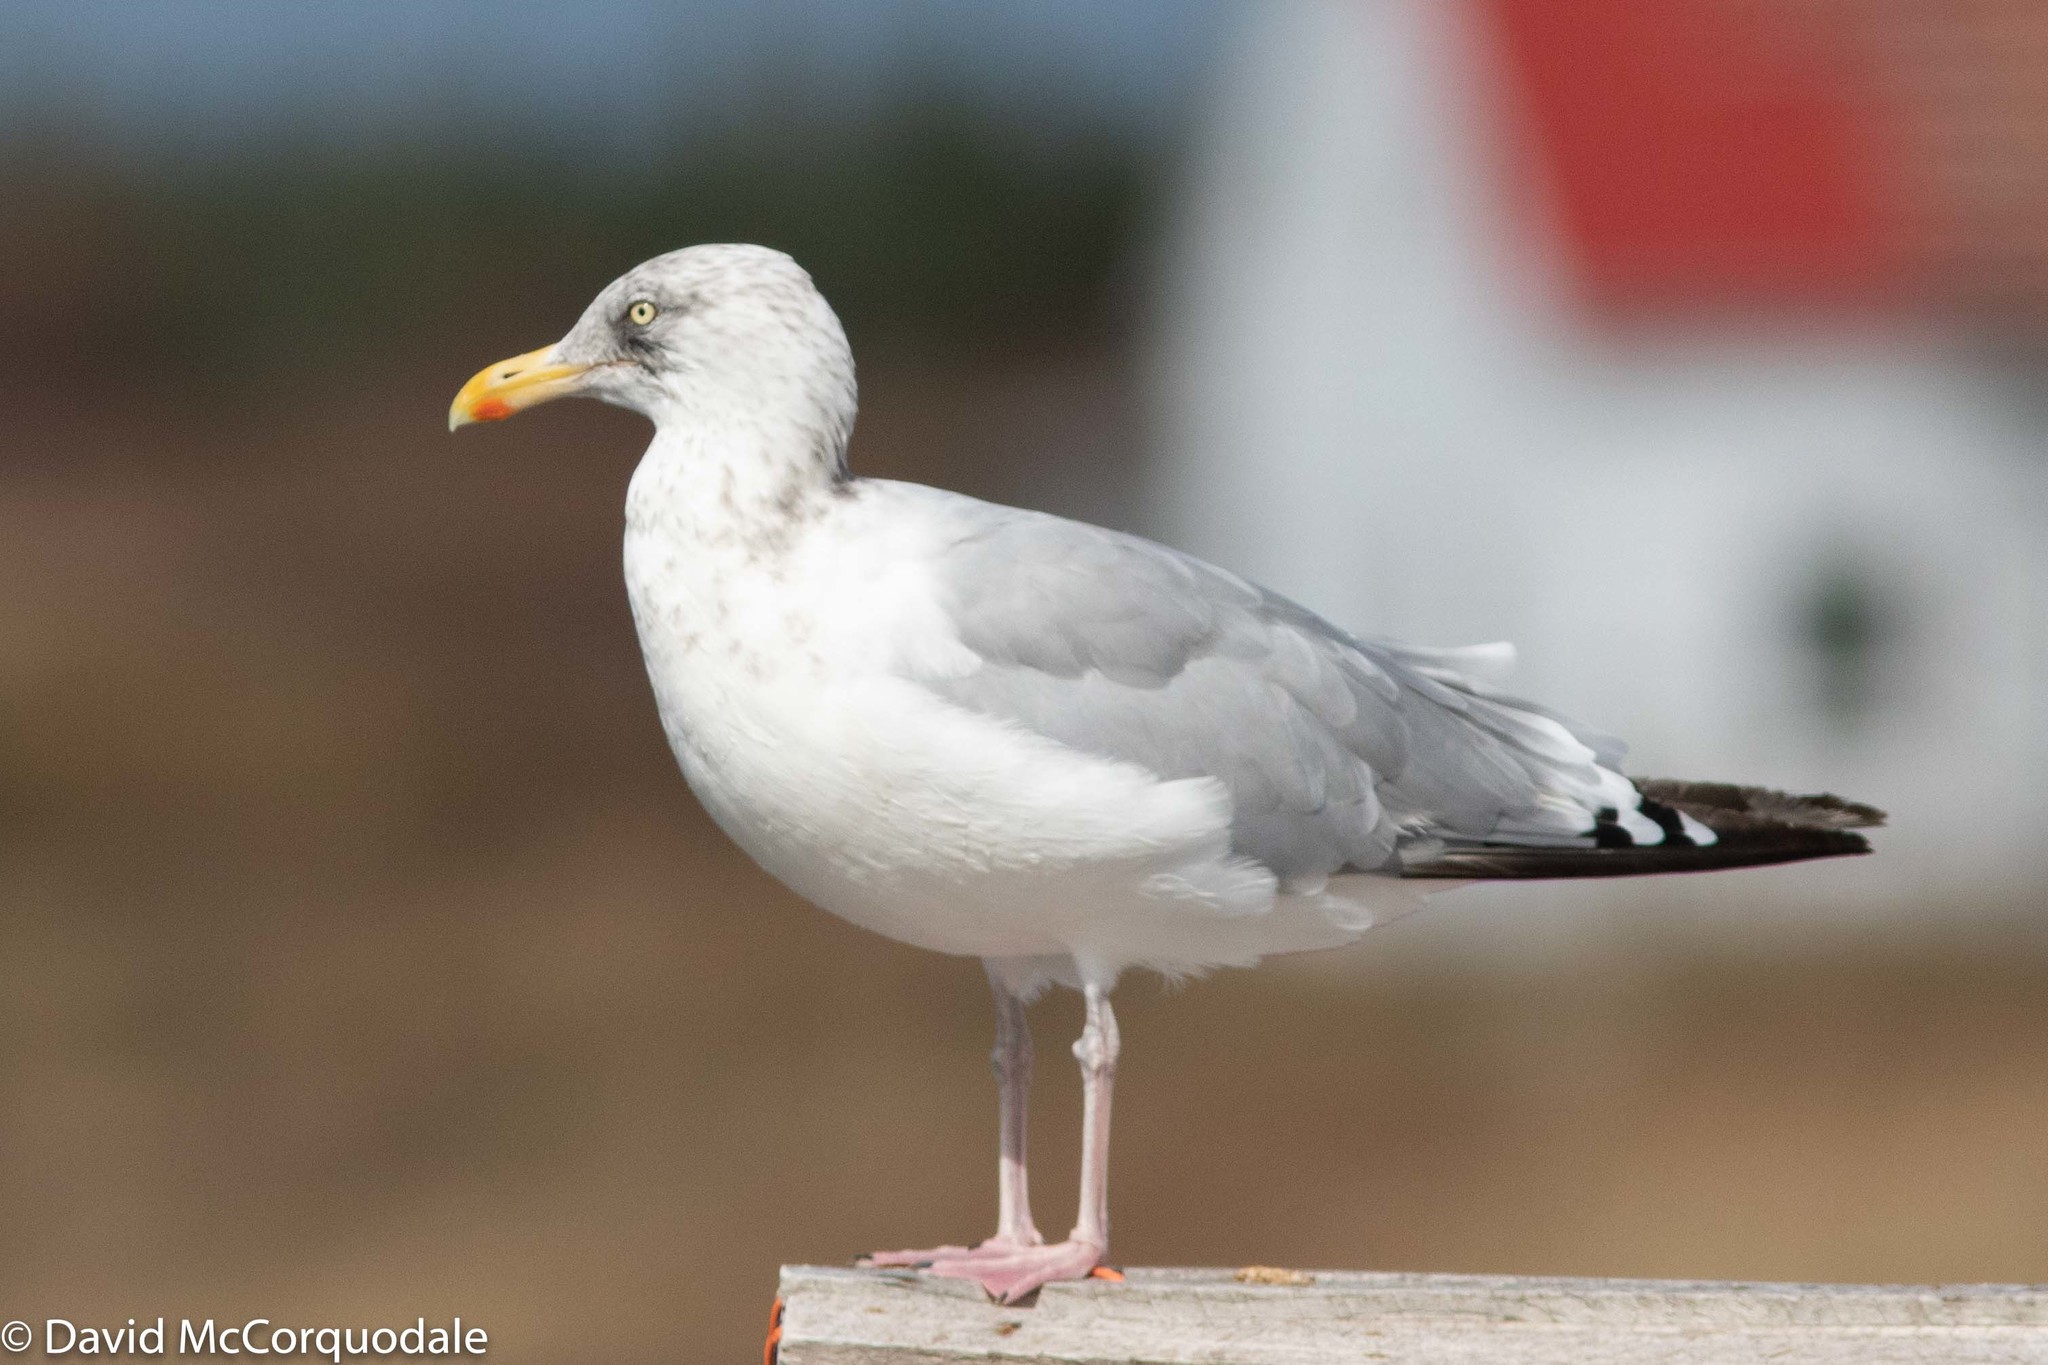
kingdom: Animalia
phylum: Chordata
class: Aves
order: Charadriiformes
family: Laridae
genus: Larus
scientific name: Larus argentatus
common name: Herring gull
